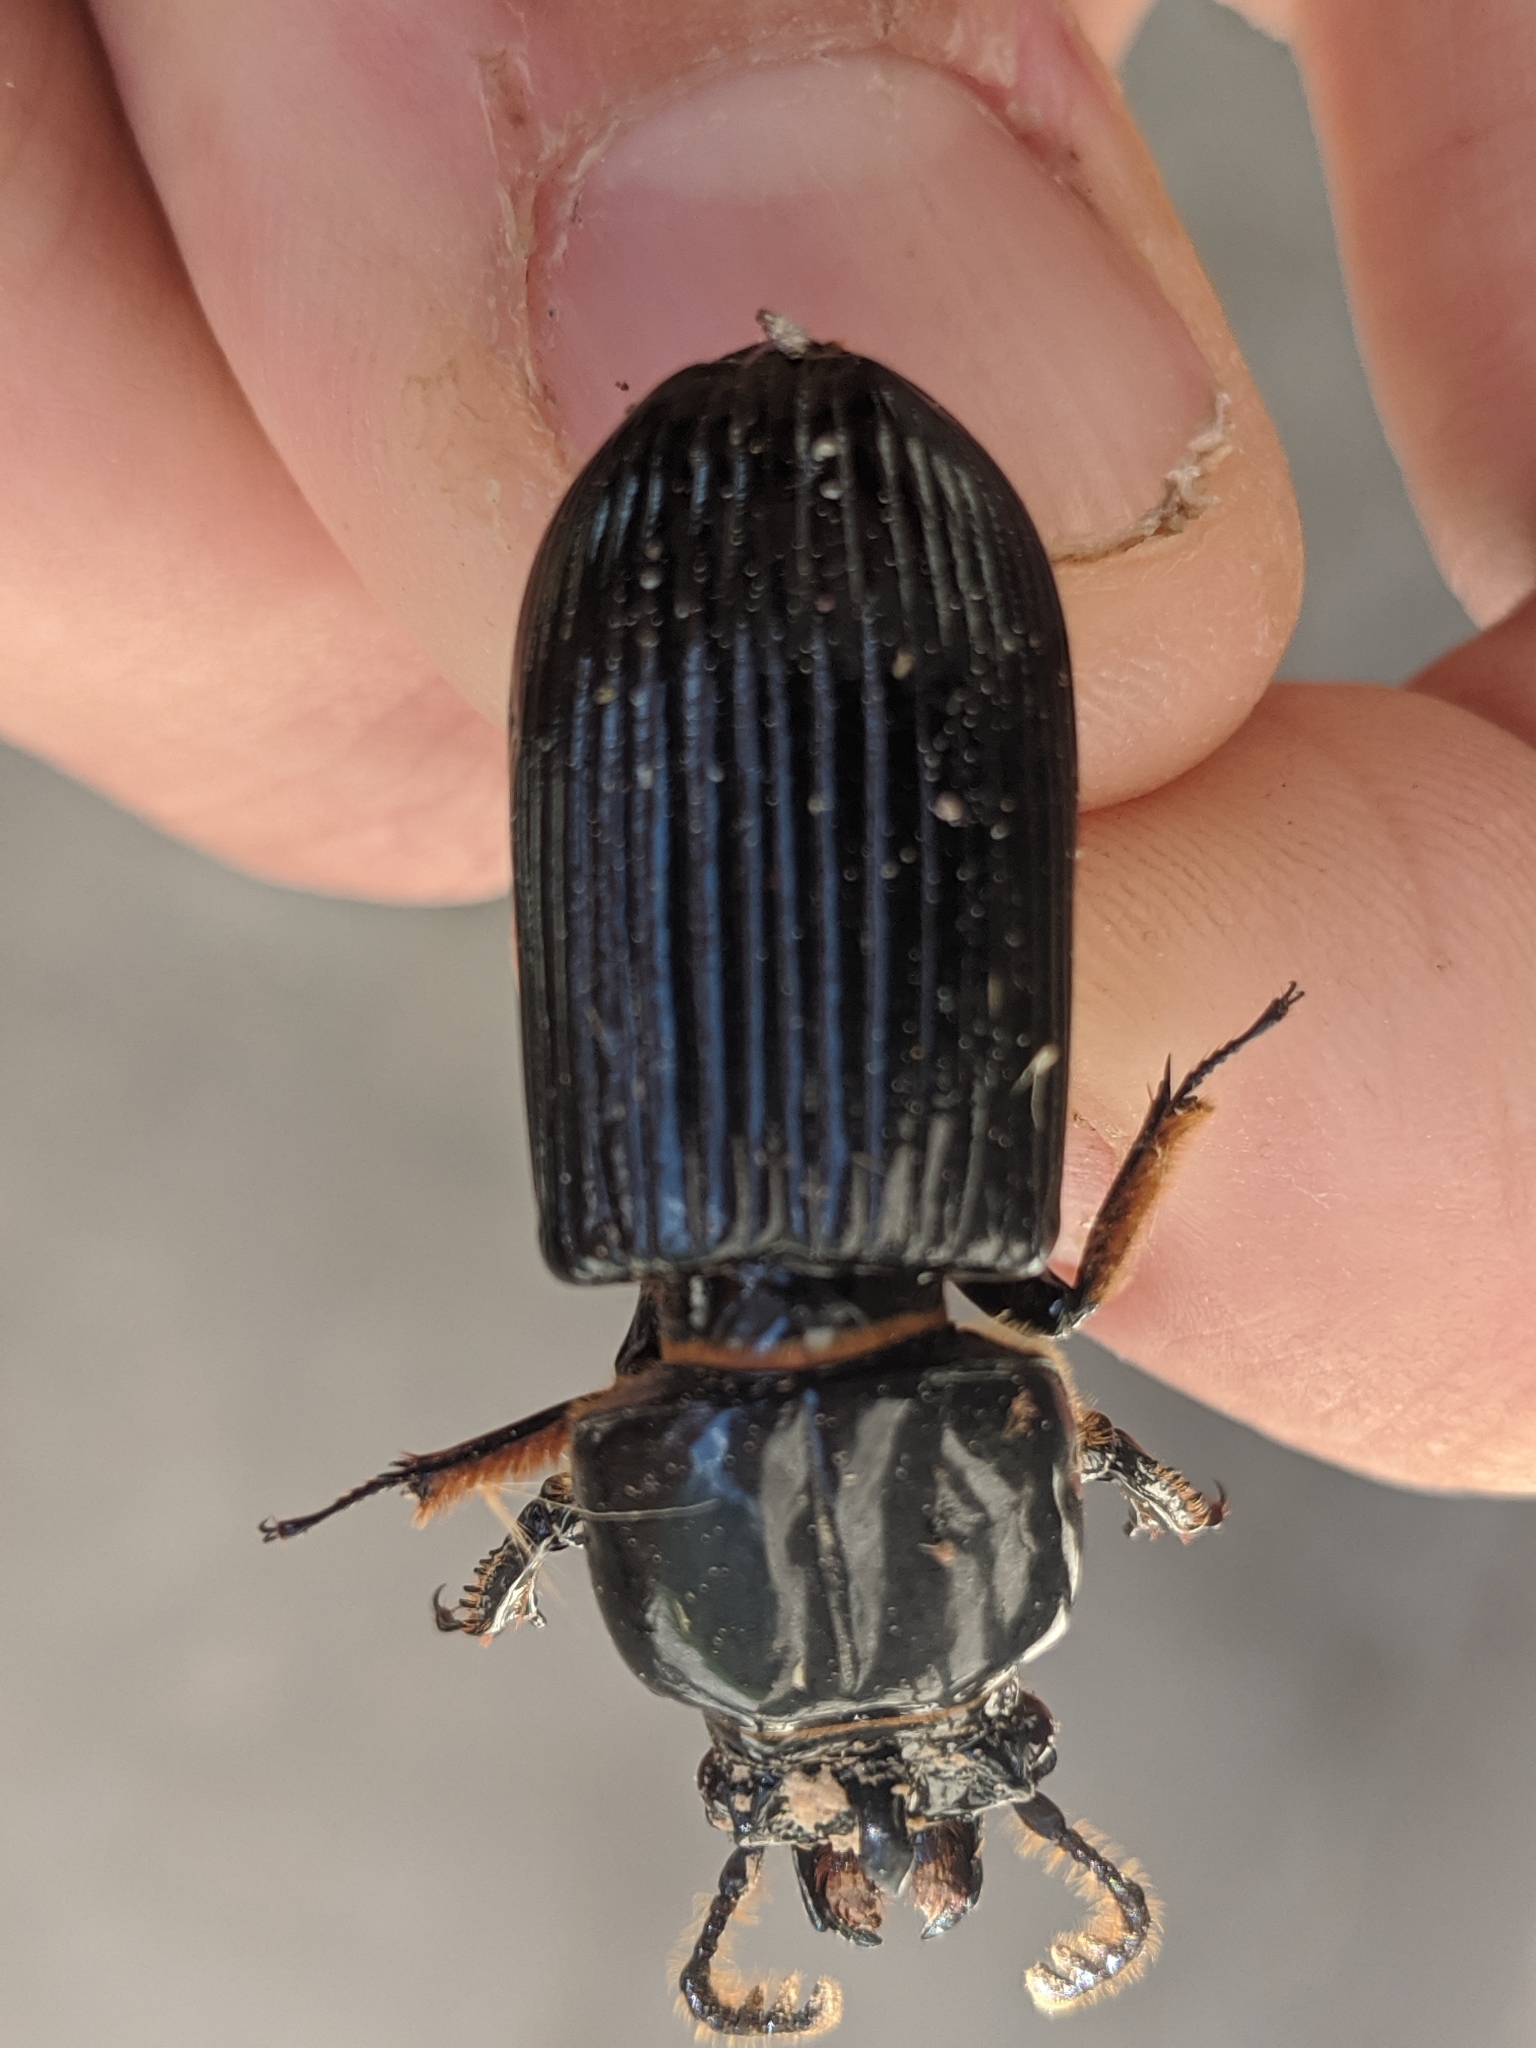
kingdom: Animalia
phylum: Arthropoda
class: Insecta
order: Coleoptera
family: Passalidae
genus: Odontotaenius
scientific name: Odontotaenius disjunctus
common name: Patent leather beetle
